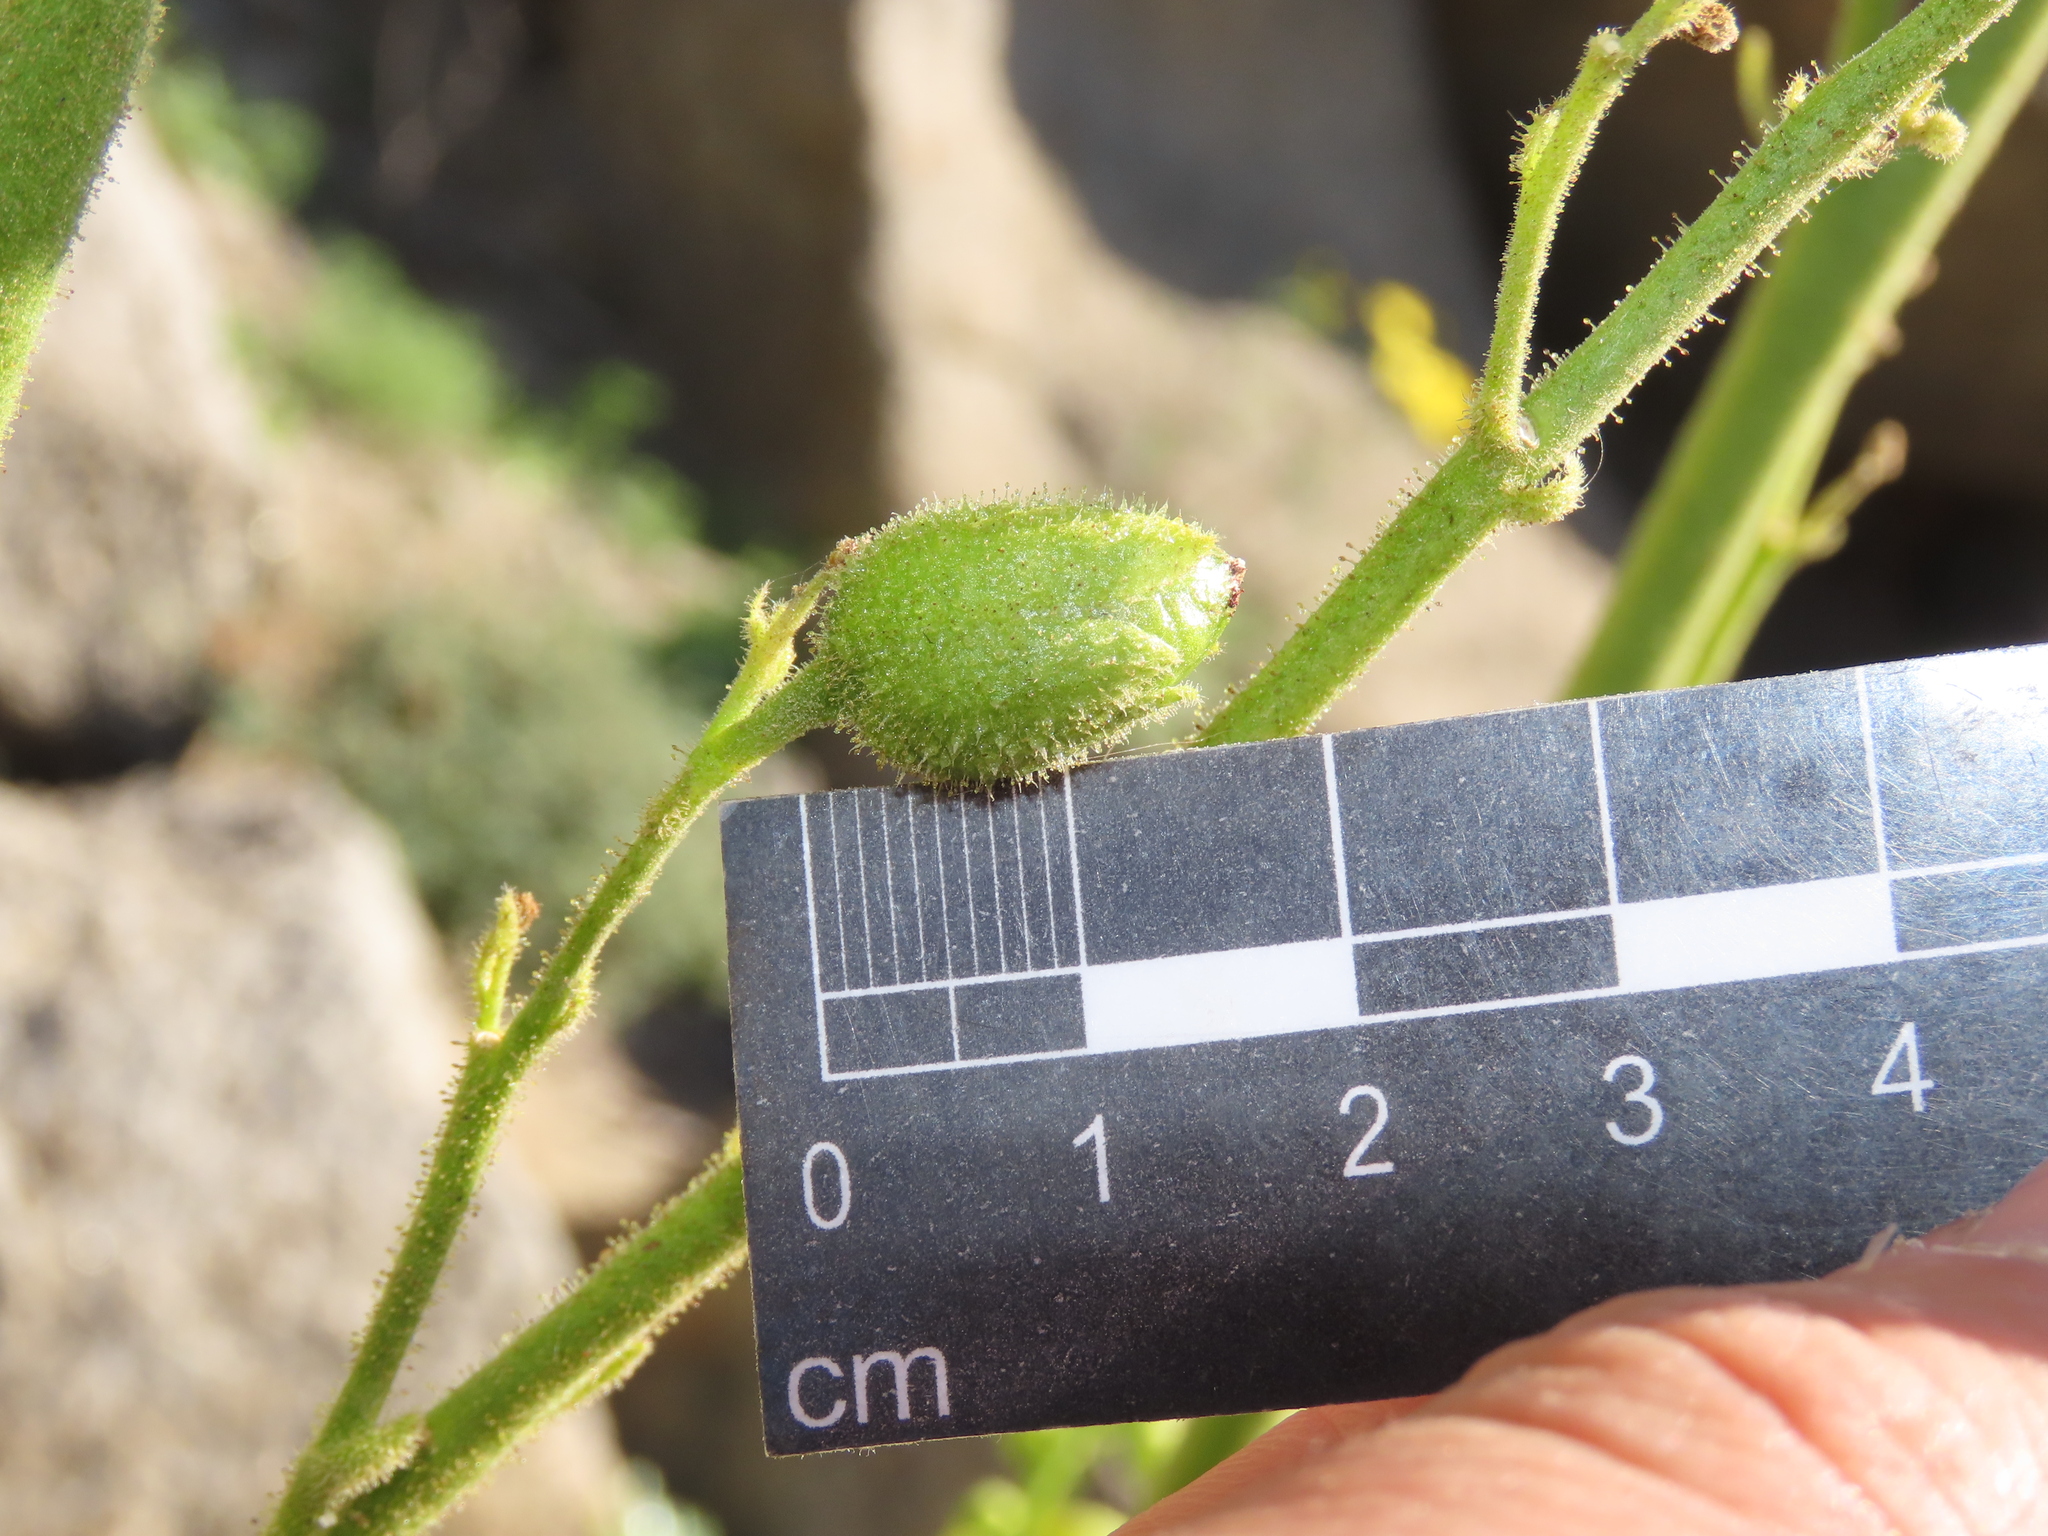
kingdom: Plantae
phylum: Tracheophyta
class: Magnoliopsida
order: Solanales
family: Solanaceae
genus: Nicotiana
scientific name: Nicotiana solanifolia
